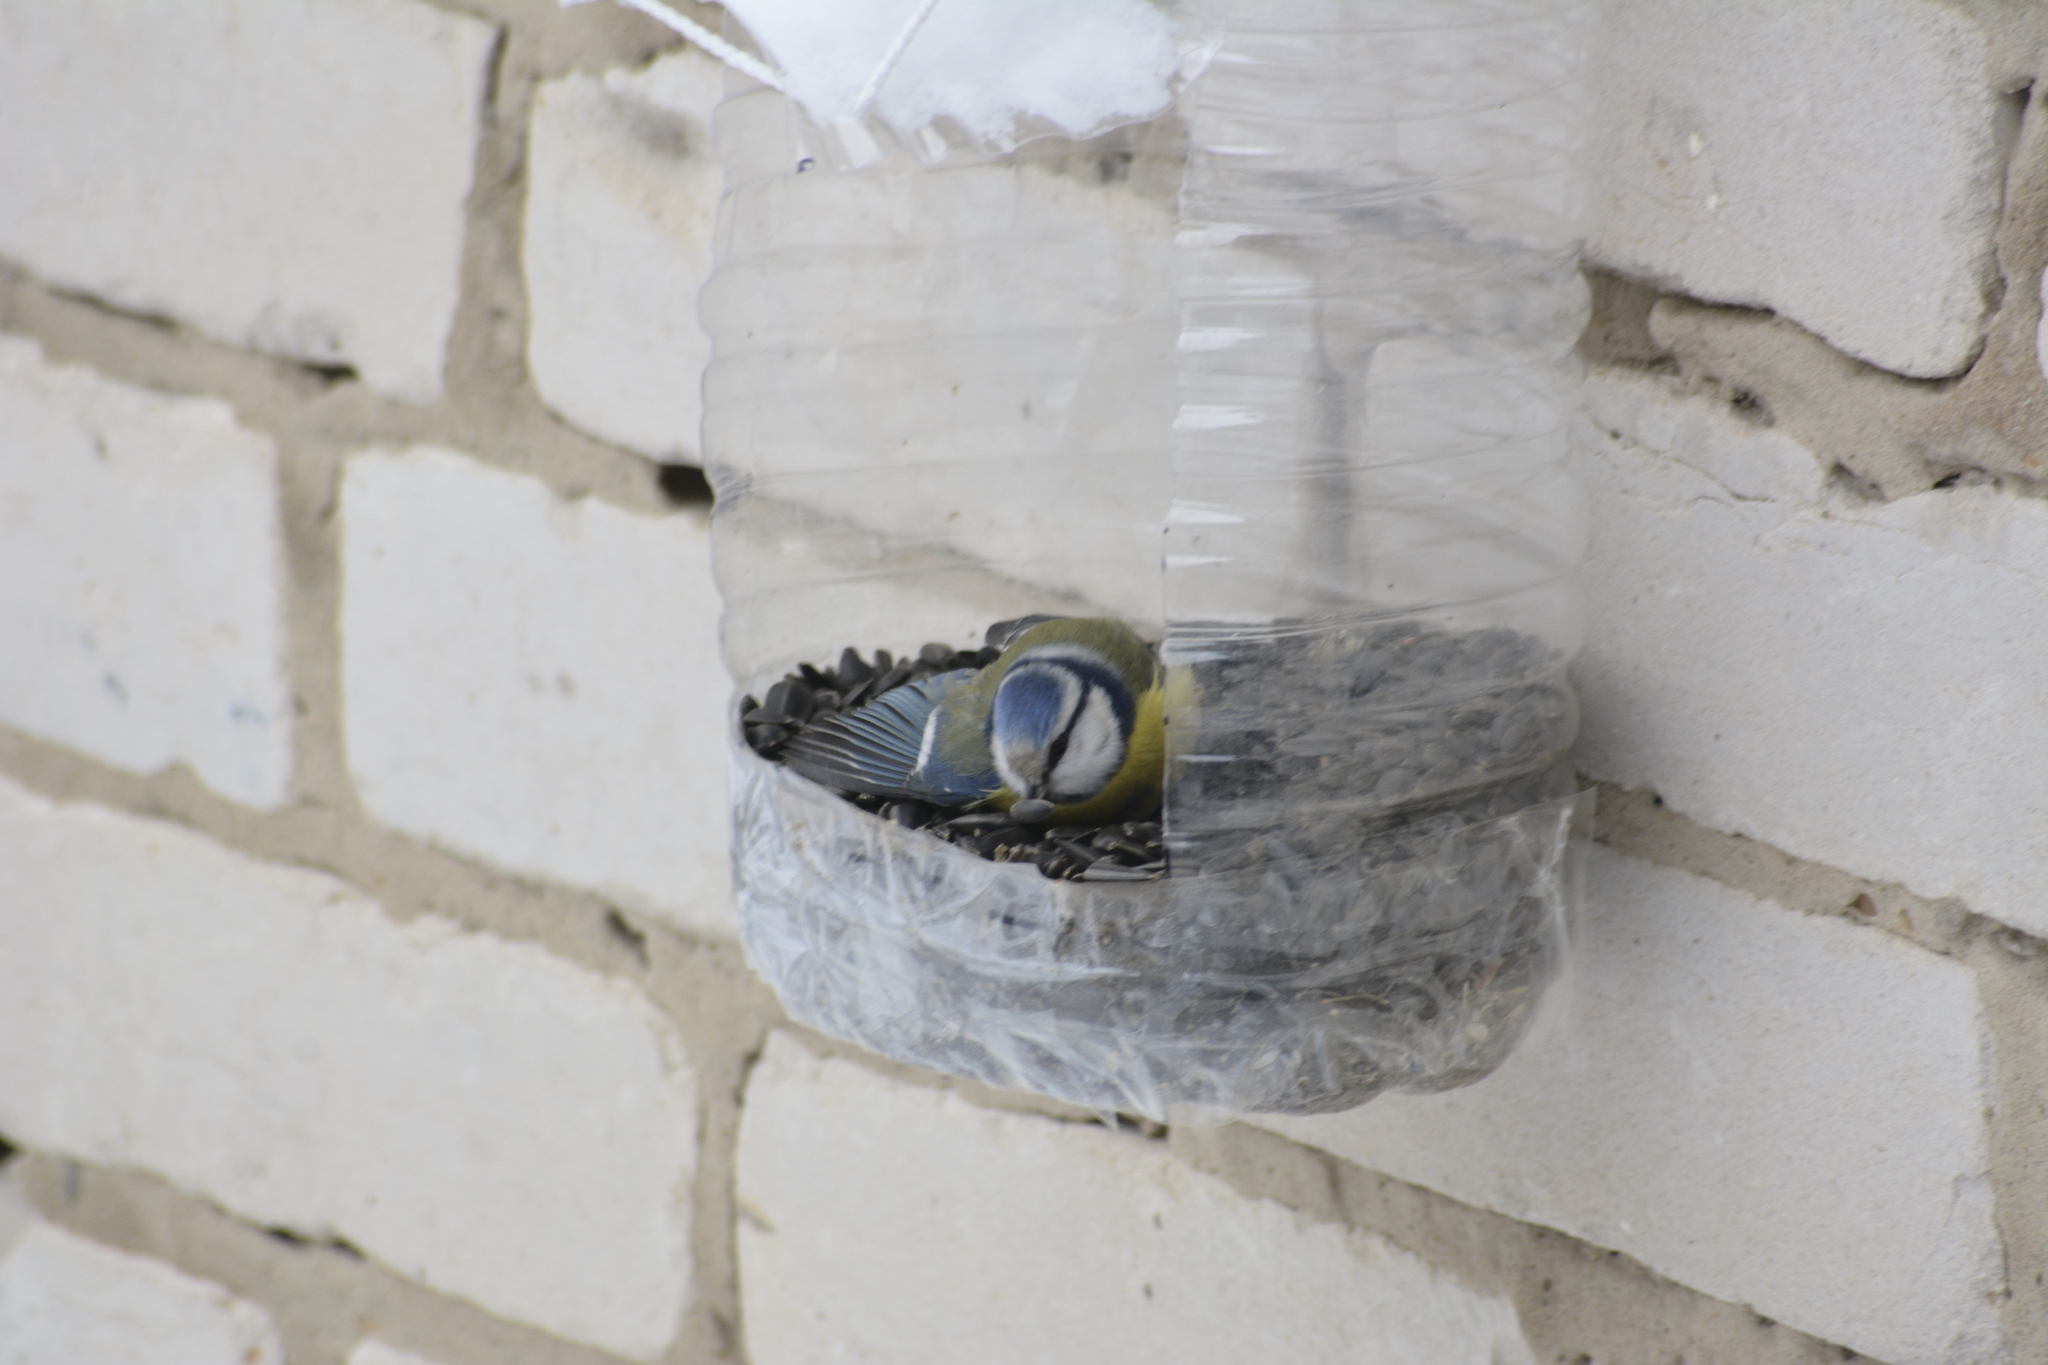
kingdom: Animalia
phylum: Chordata
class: Aves
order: Passeriformes
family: Paridae
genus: Cyanistes
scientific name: Cyanistes caeruleus
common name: Eurasian blue tit
